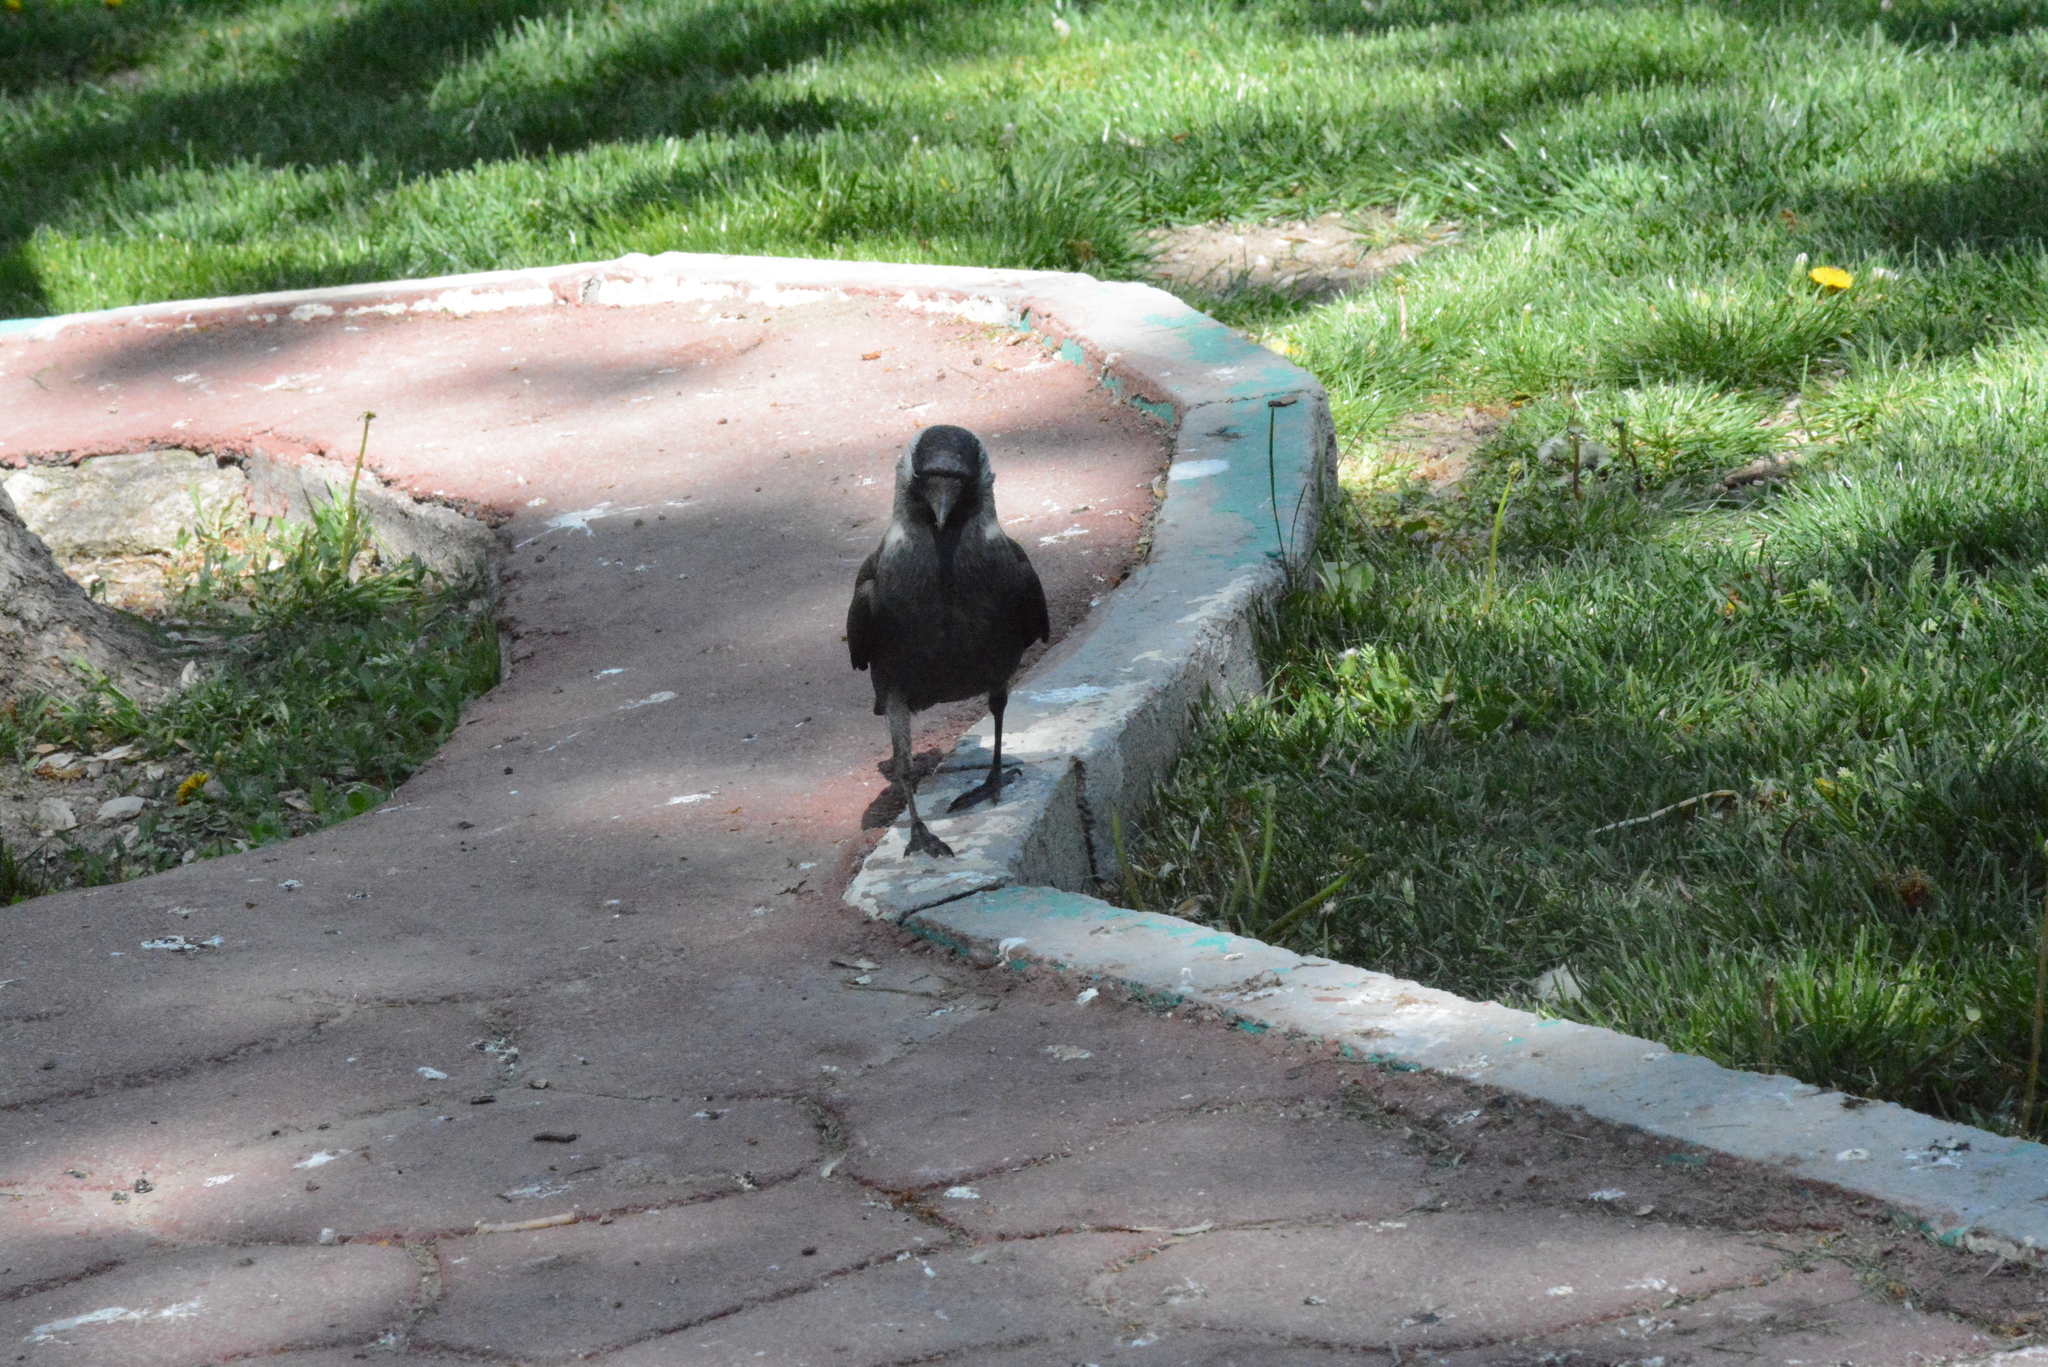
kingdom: Animalia
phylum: Chordata
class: Aves
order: Passeriformes
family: Corvidae
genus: Coloeus
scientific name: Coloeus monedula
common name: Western jackdaw
